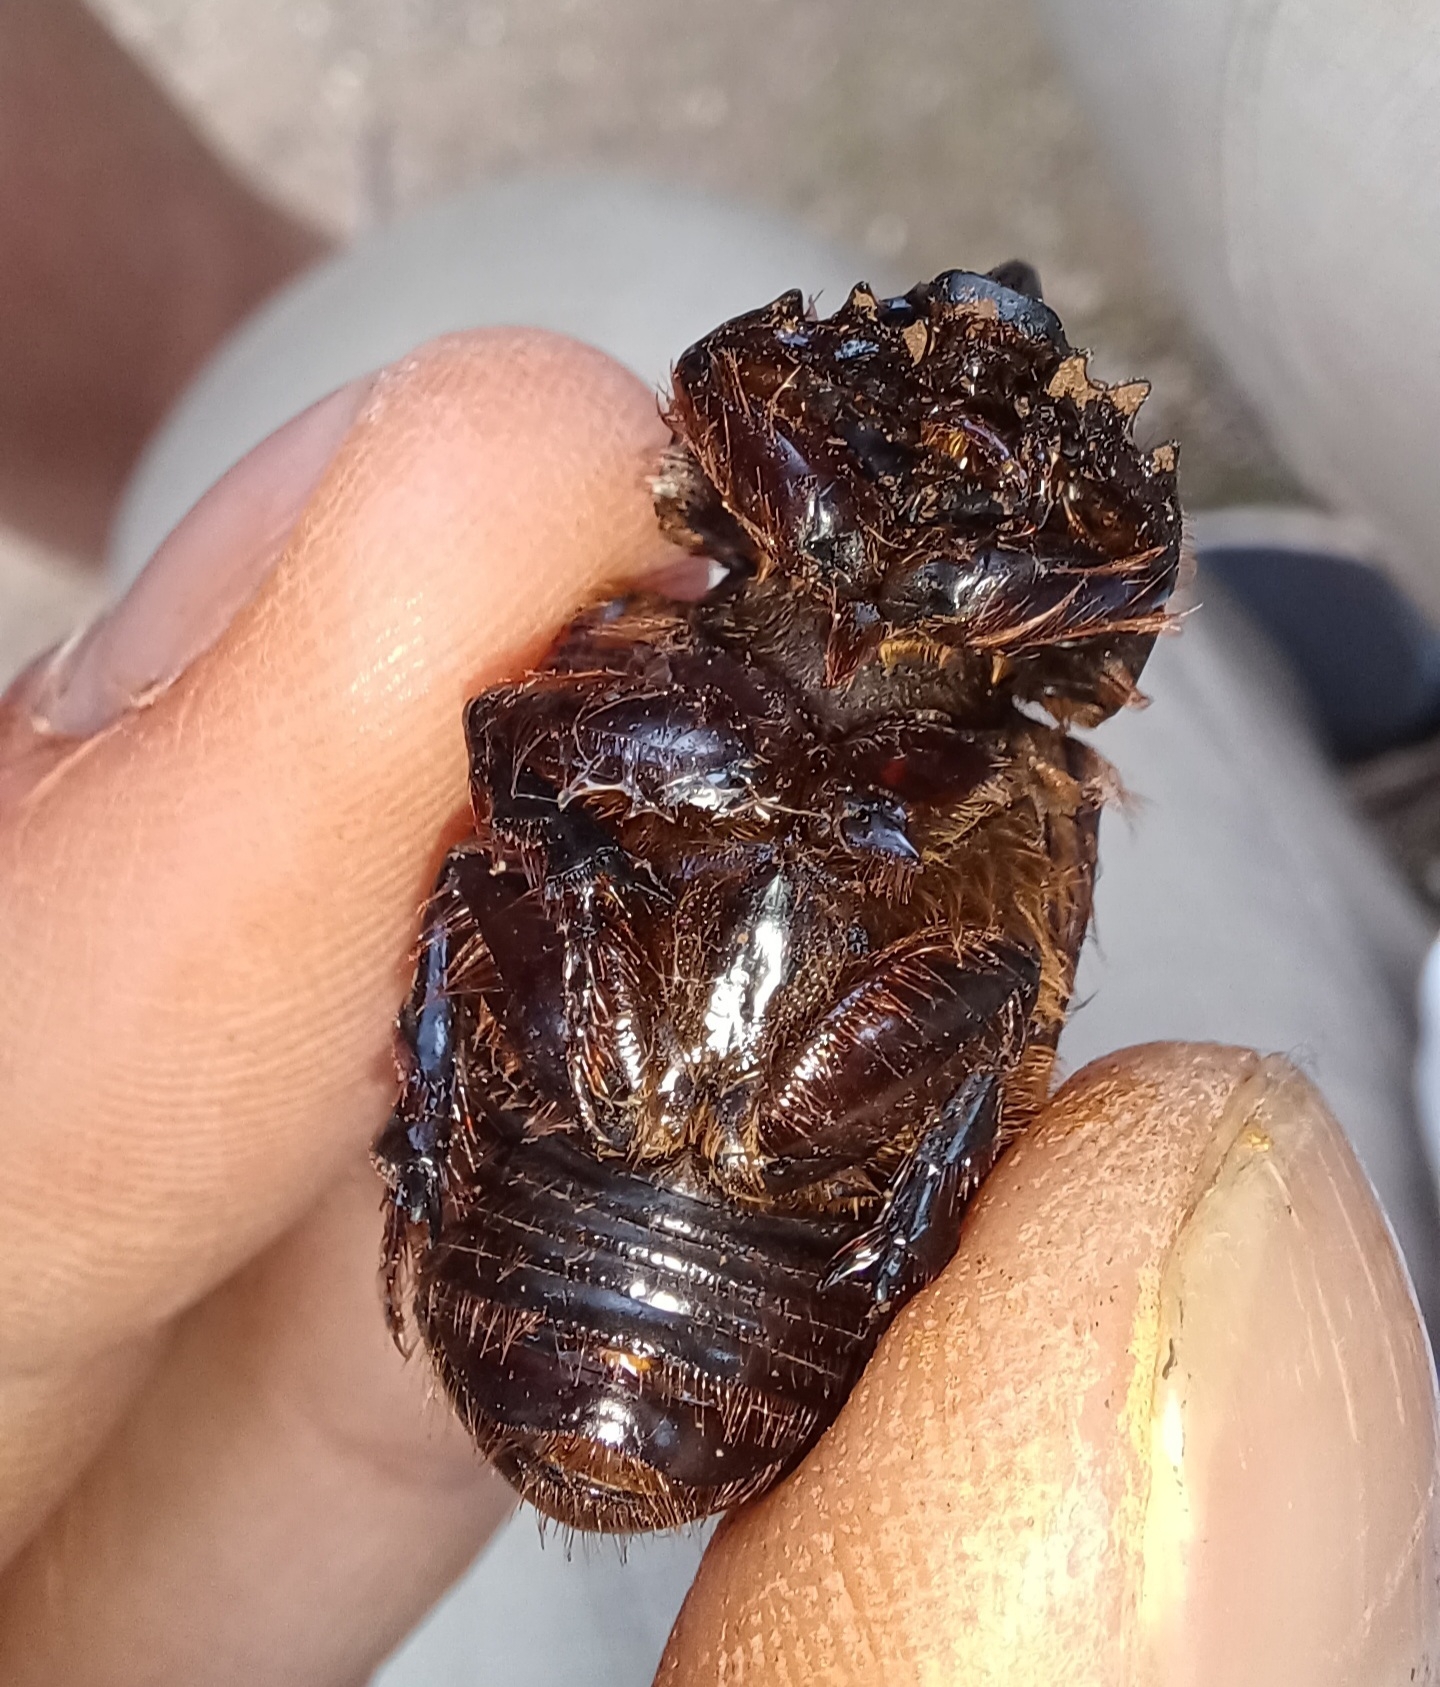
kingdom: Animalia
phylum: Arthropoda
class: Insecta
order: Coleoptera
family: Scarabaeidae
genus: Dasygnathus
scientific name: Dasygnathus trituberculatus
